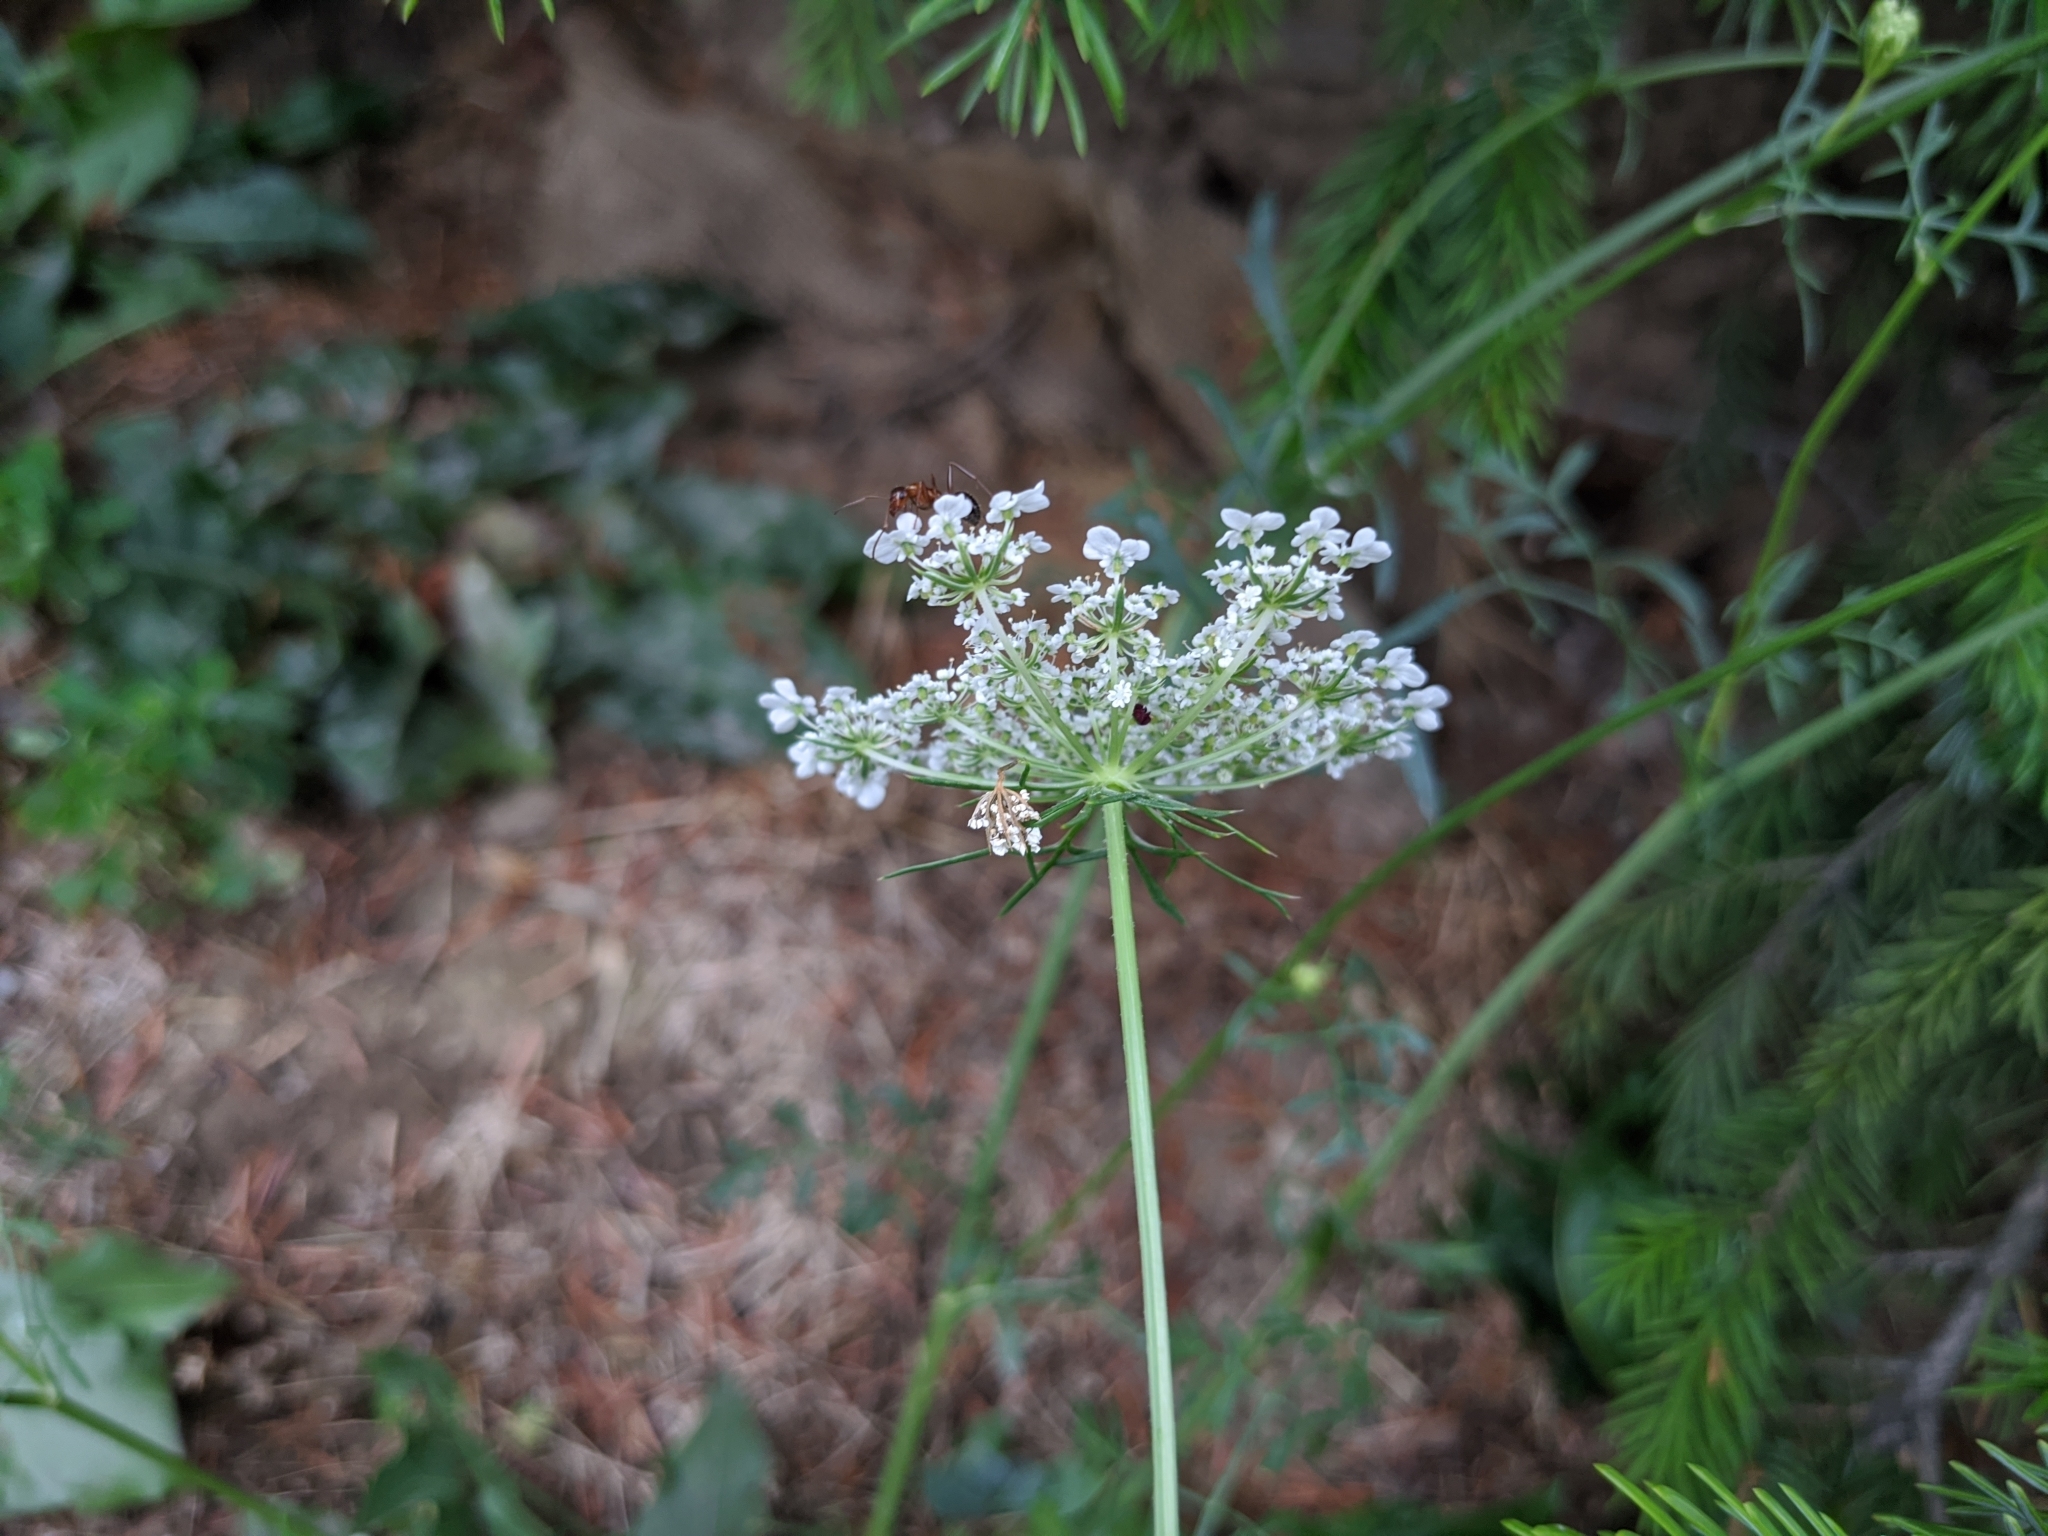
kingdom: Plantae
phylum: Tracheophyta
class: Magnoliopsida
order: Apiales
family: Apiaceae
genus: Daucus
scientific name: Daucus carota
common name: Wild carrot
